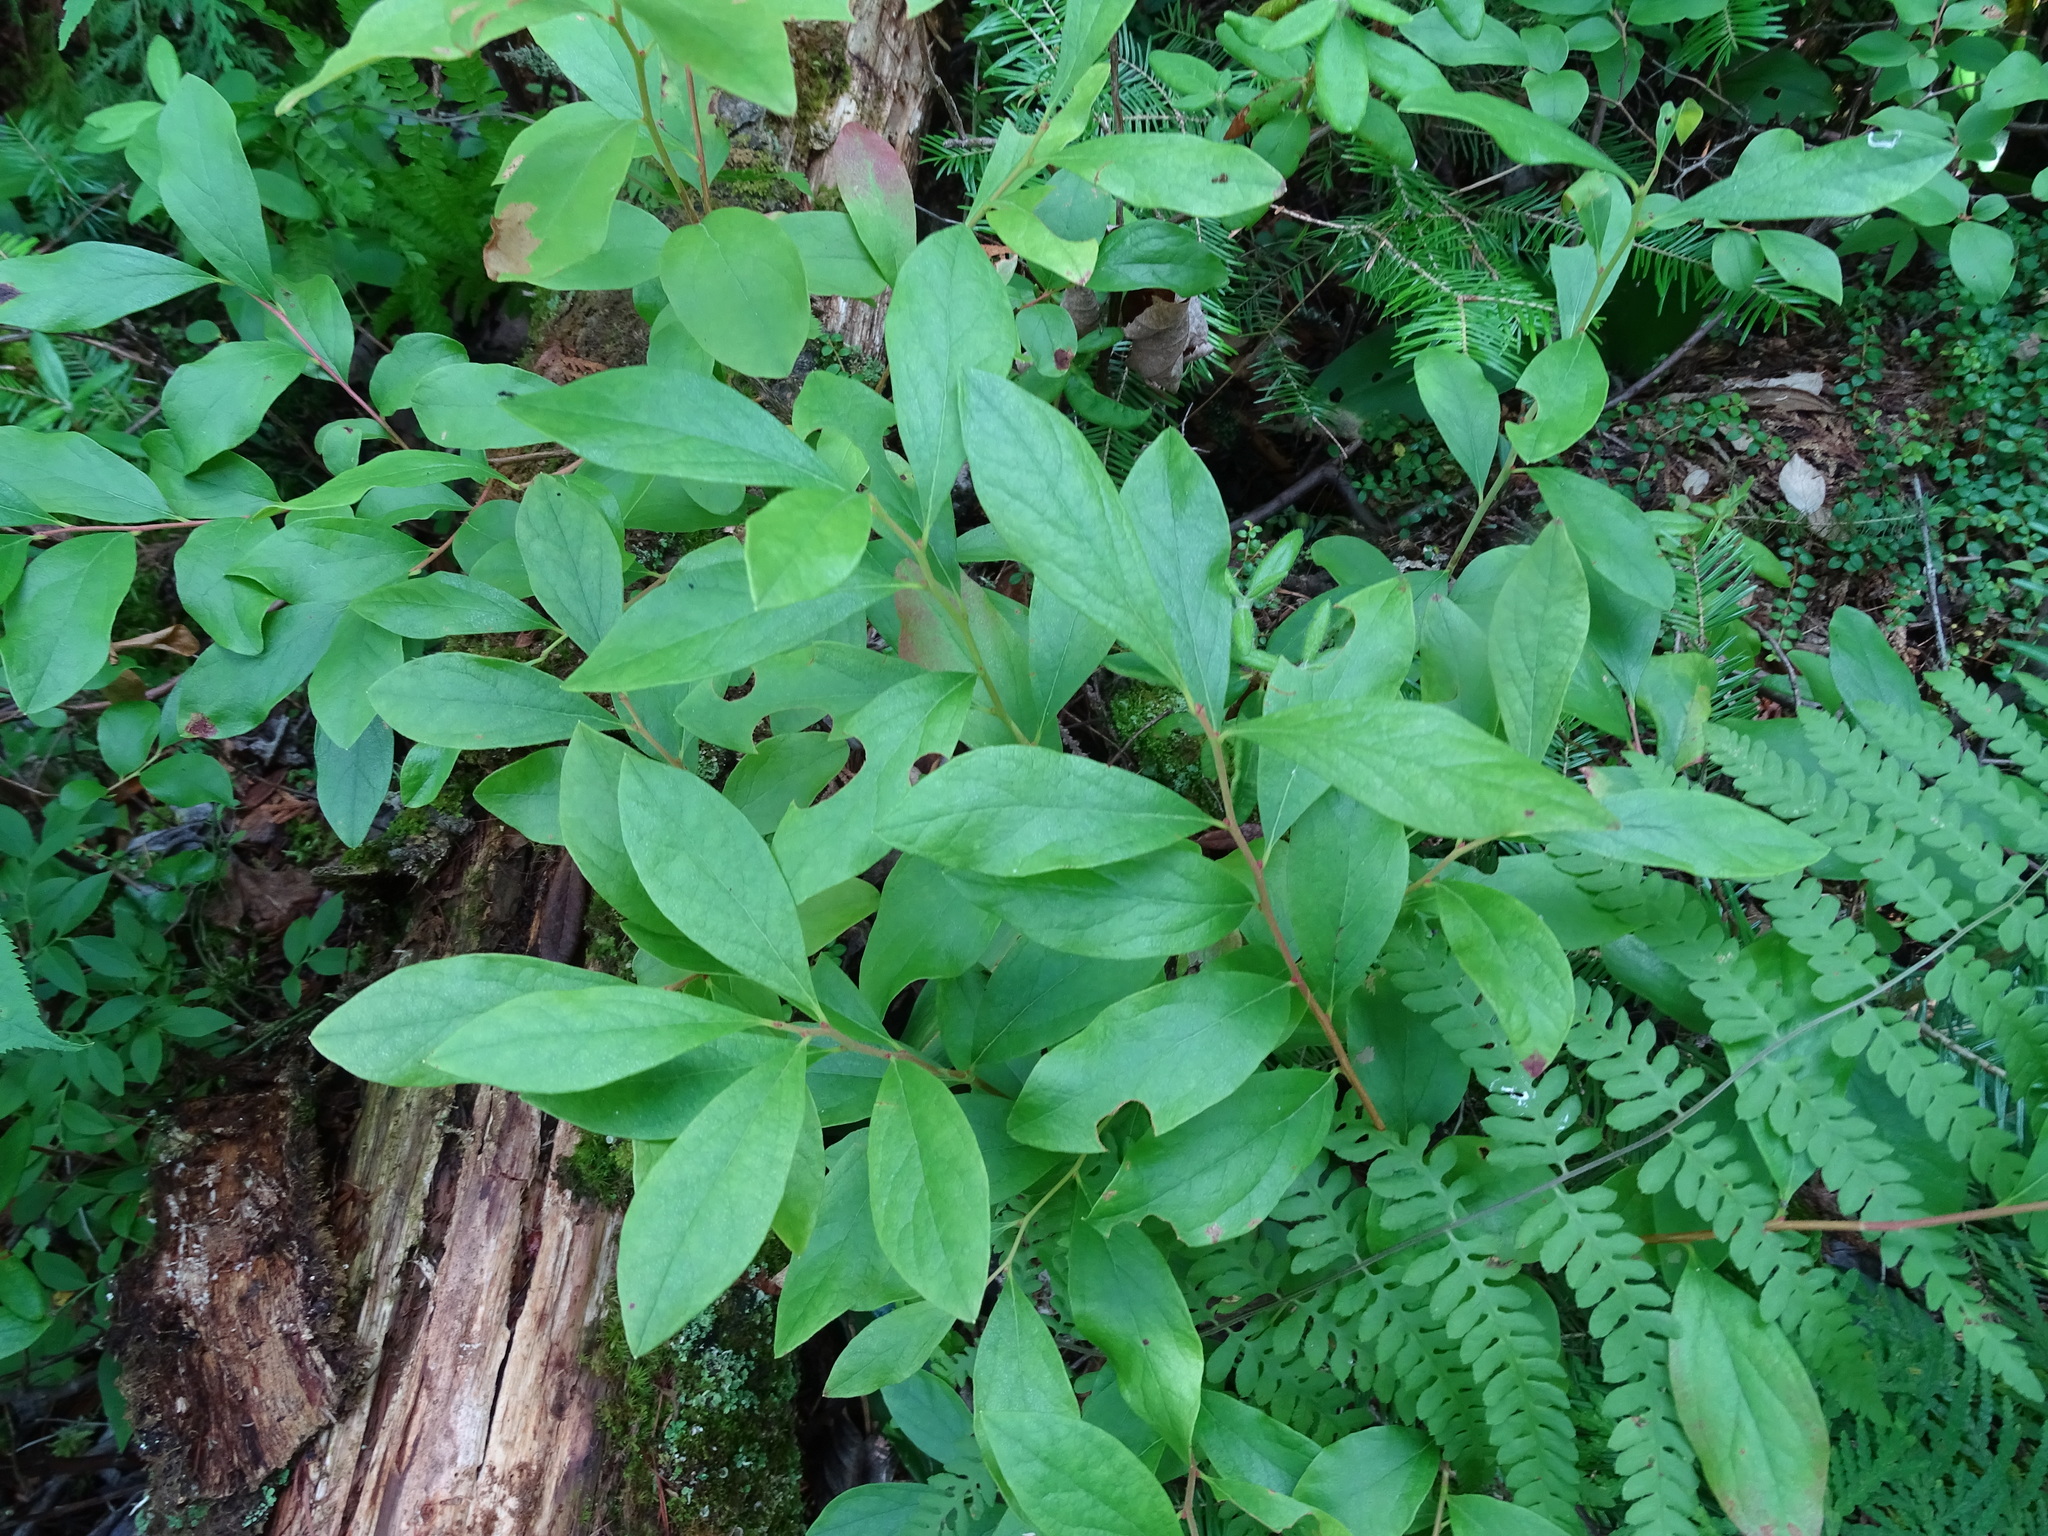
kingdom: Plantae
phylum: Tracheophyta
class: Magnoliopsida
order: Ericales
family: Ericaceae
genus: Gaylussacia
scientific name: Gaylussacia baccata
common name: Black huckleberry
